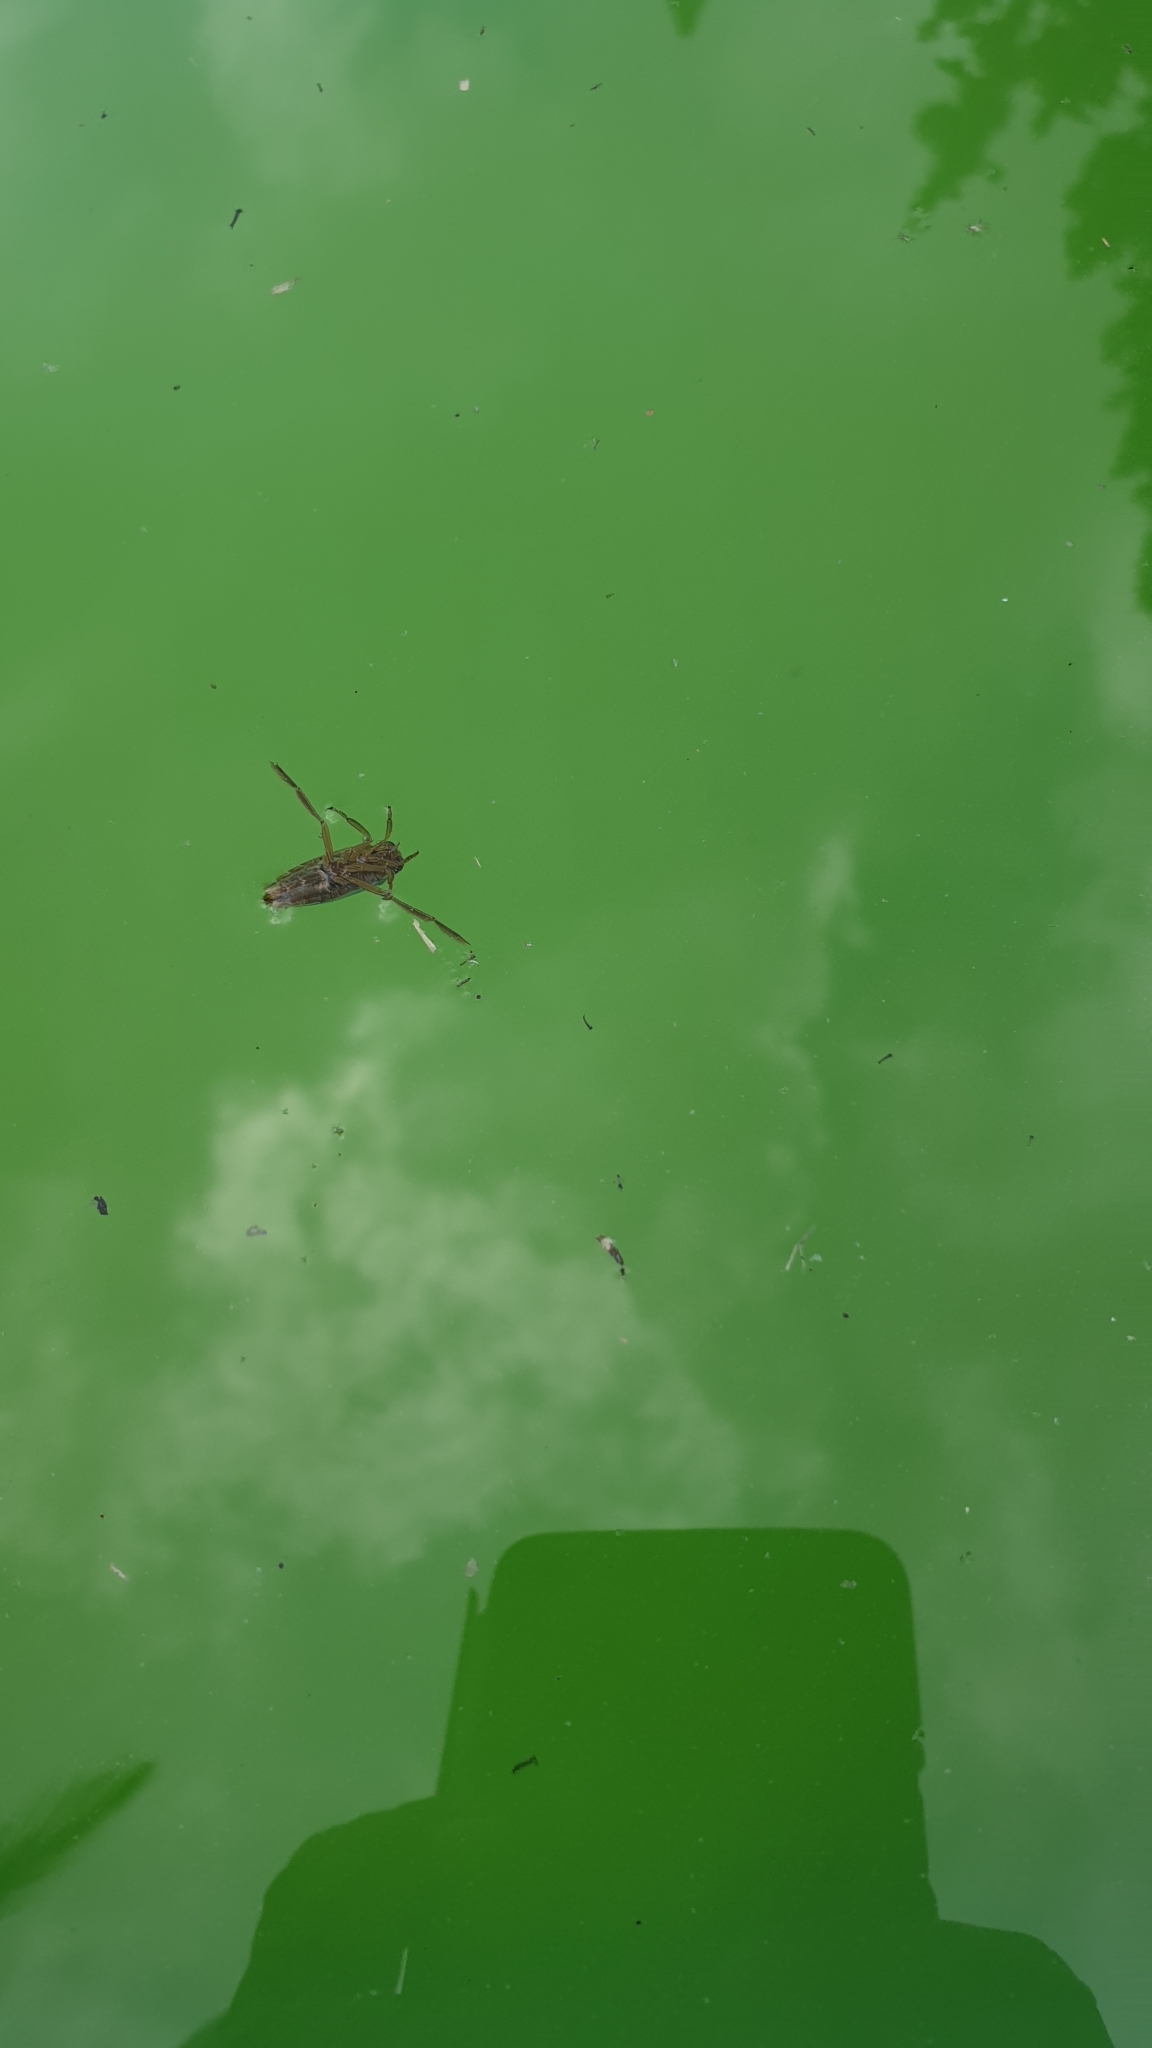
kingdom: Animalia
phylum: Arthropoda
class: Insecta
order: Hemiptera
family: Notonectidae
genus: Notonecta
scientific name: Notonecta
